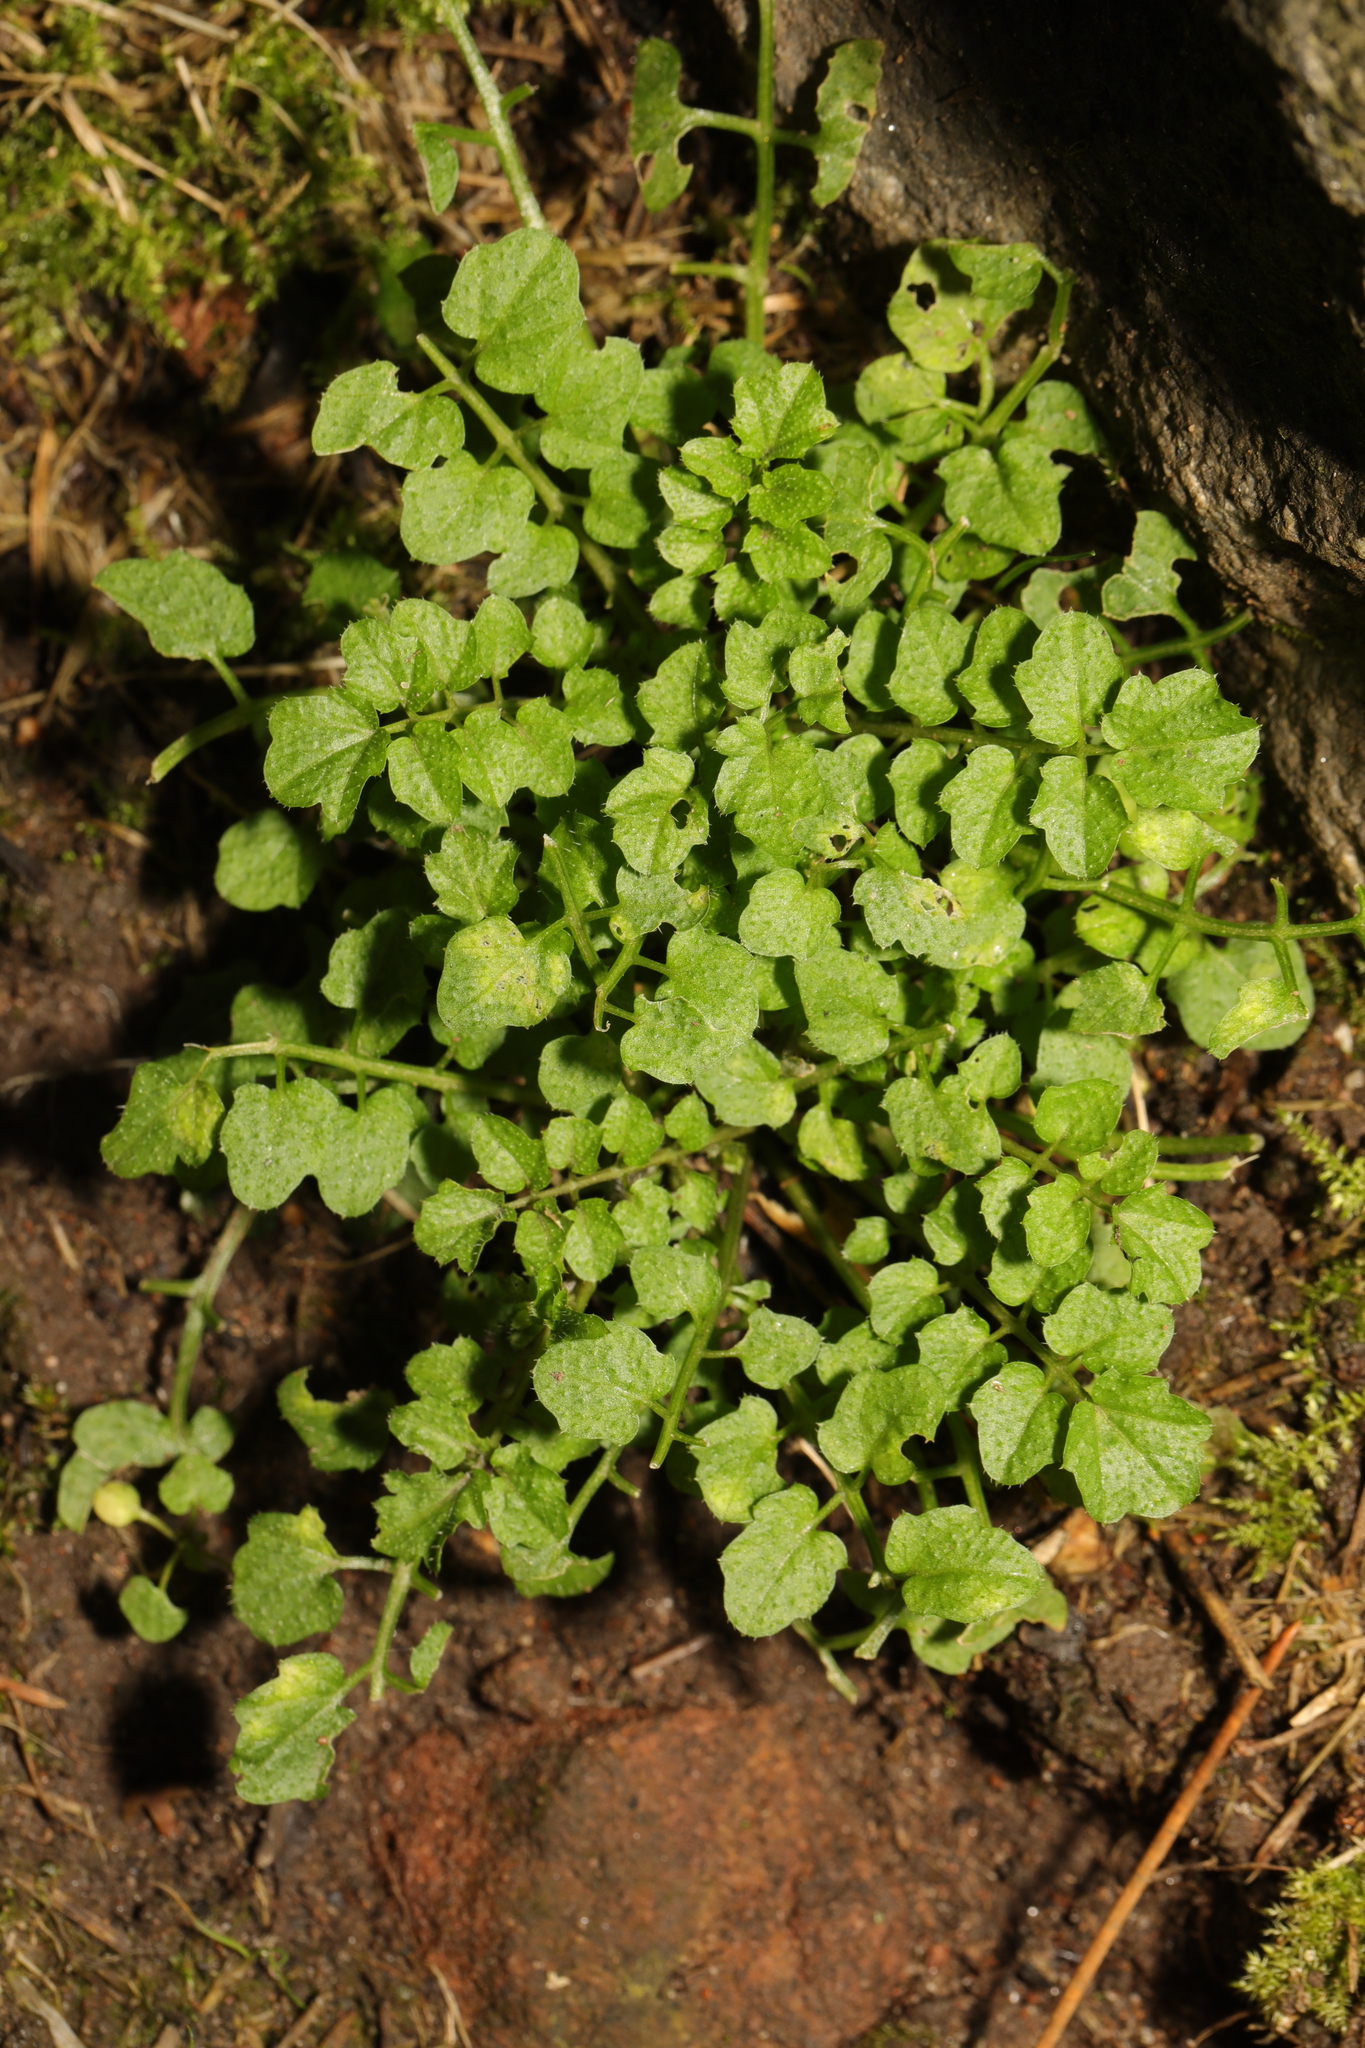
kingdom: Plantae
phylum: Tracheophyta
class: Magnoliopsida
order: Brassicales
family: Brassicaceae
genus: Cardamine
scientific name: Cardamine flexuosa
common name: Woodland bittercress
